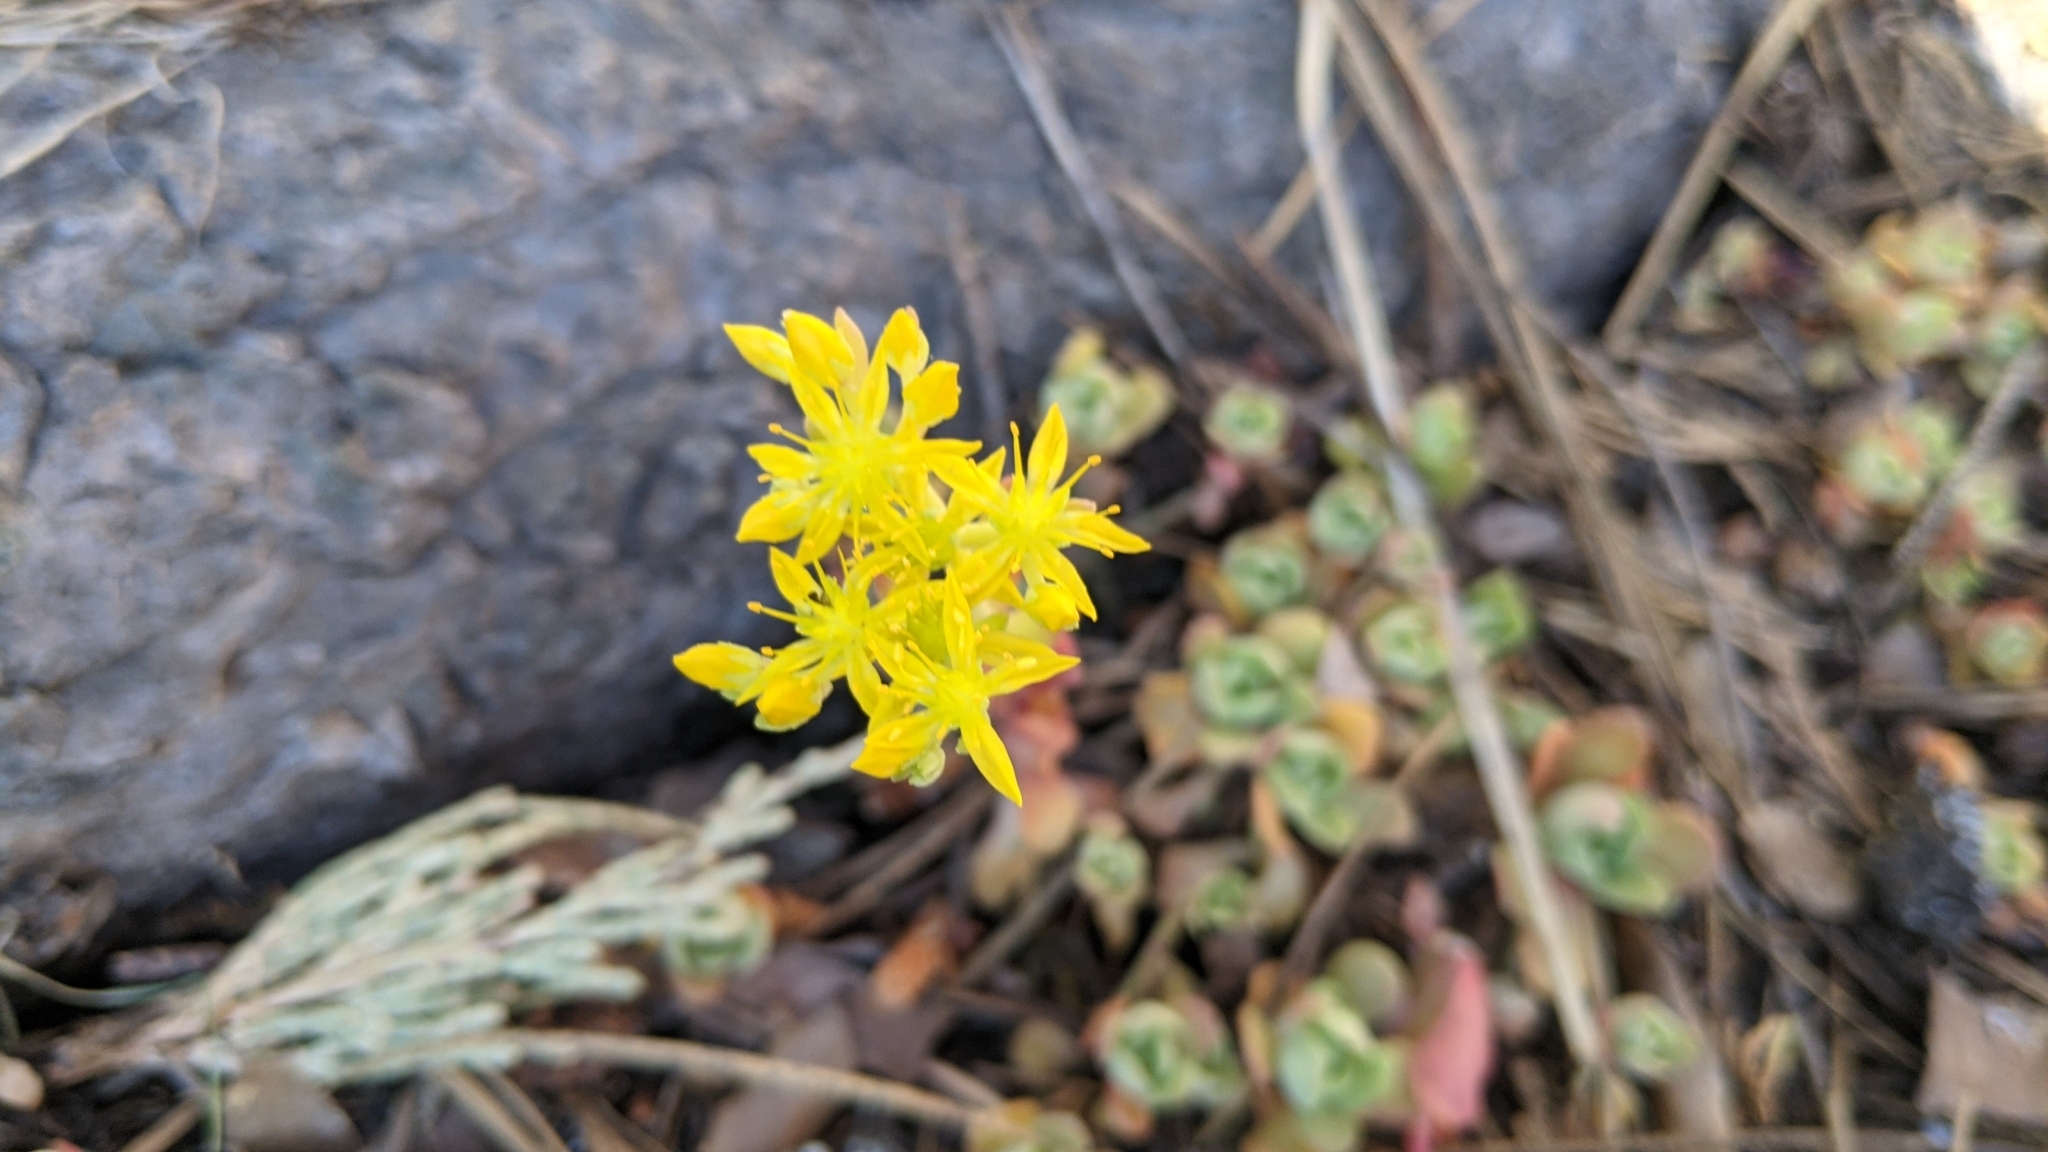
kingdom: Plantae
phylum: Tracheophyta
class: Magnoliopsida
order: Saxifragales
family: Crassulaceae
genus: Sedum
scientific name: Sedum spathulifolium
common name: Colorado stonecrop
